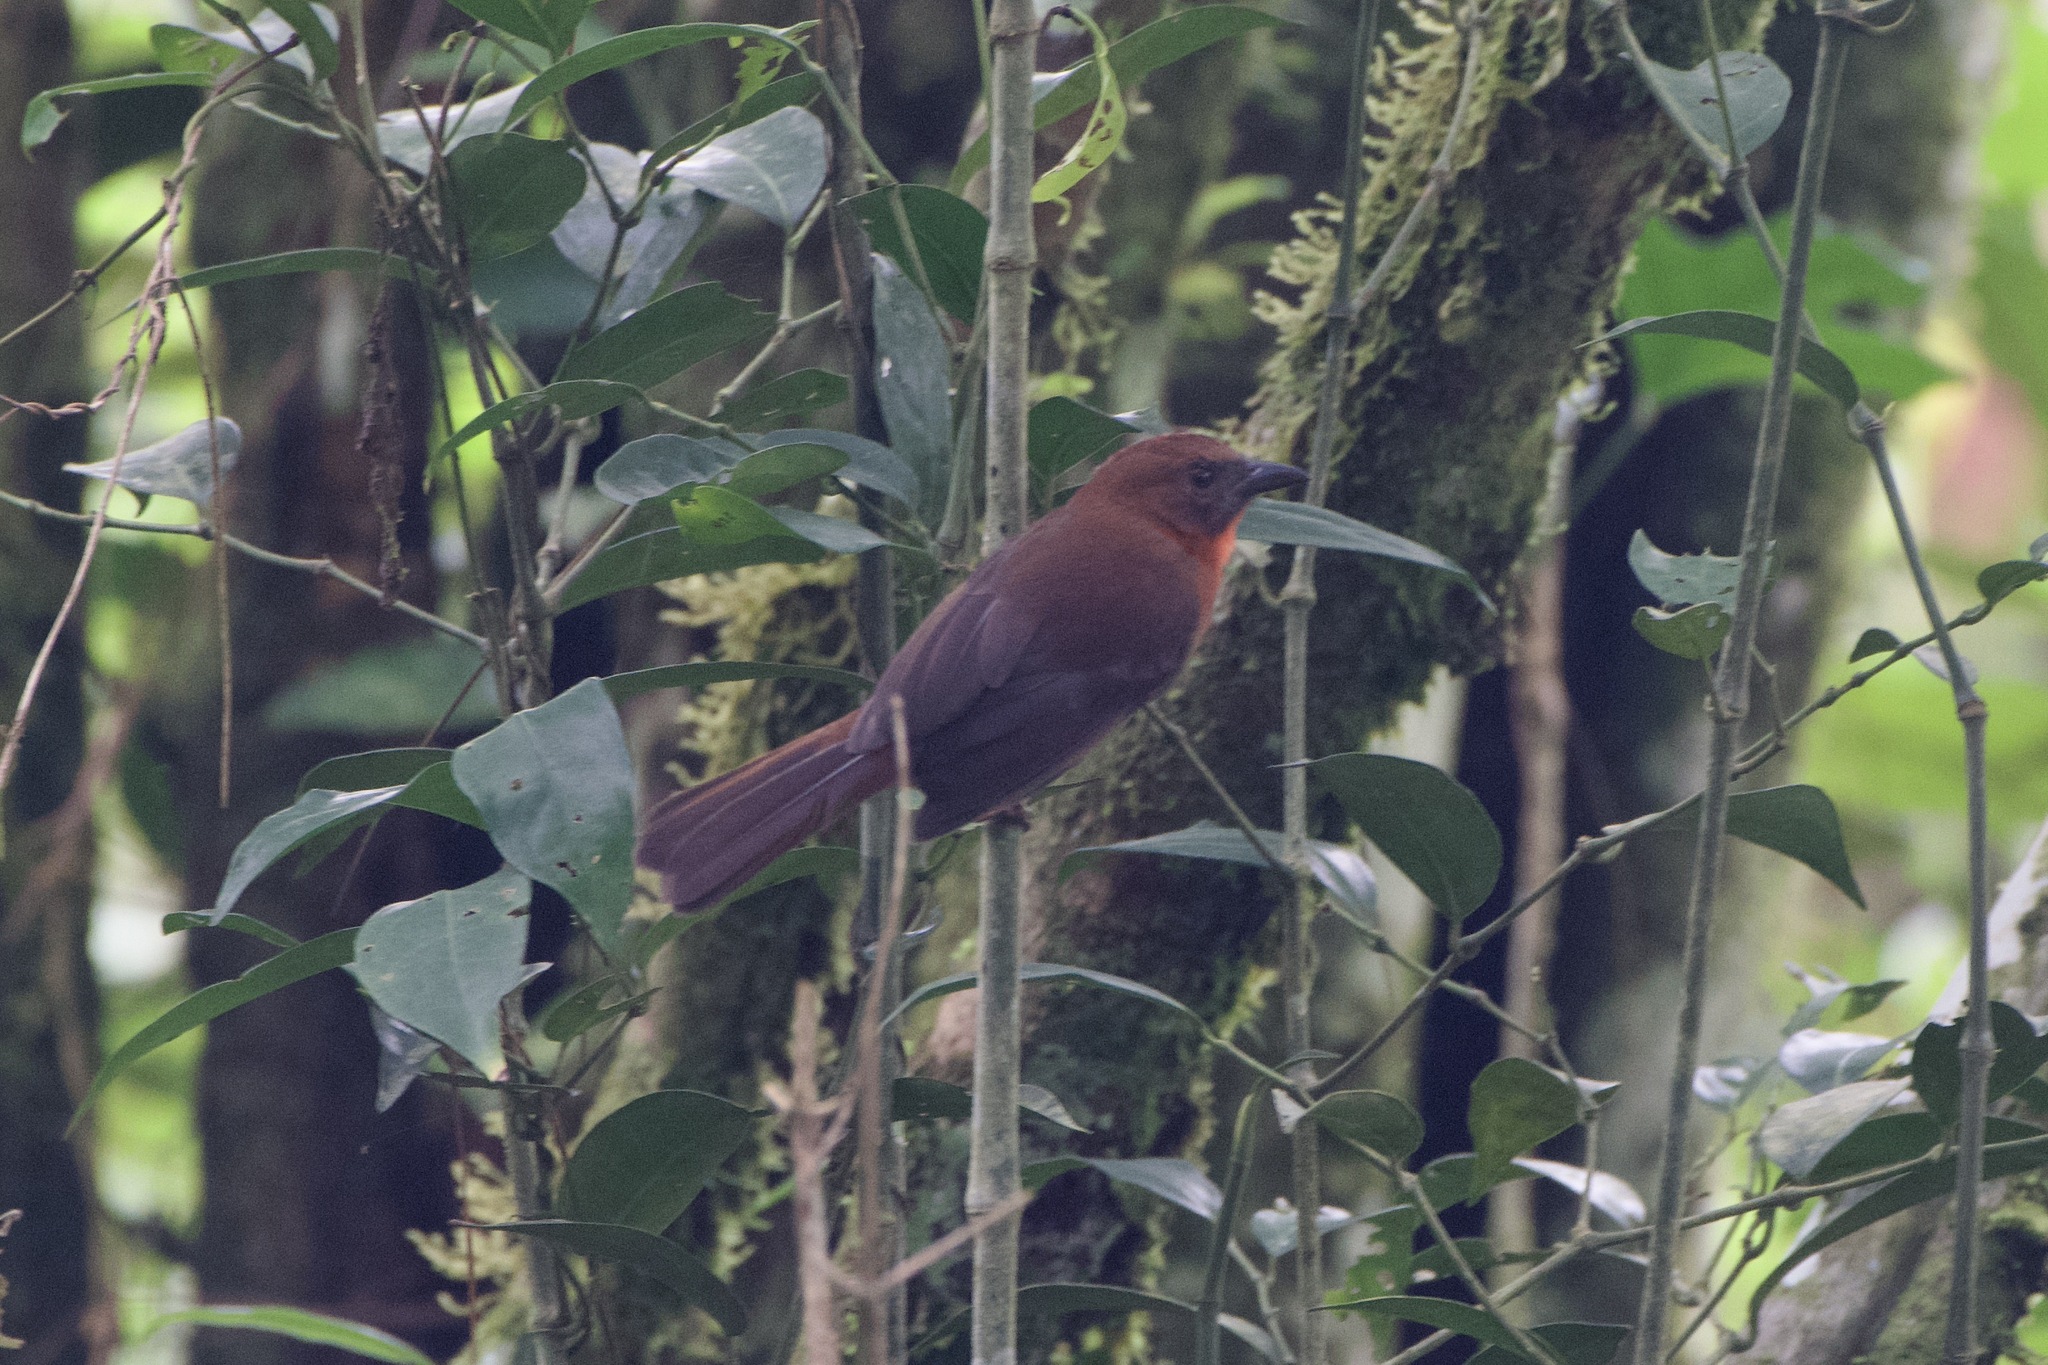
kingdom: Animalia
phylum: Chordata
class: Aves
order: Passeriformes
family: Cardinalidae
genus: Habia
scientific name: Habia fuscicauda
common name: Red-throated ant-tanager
